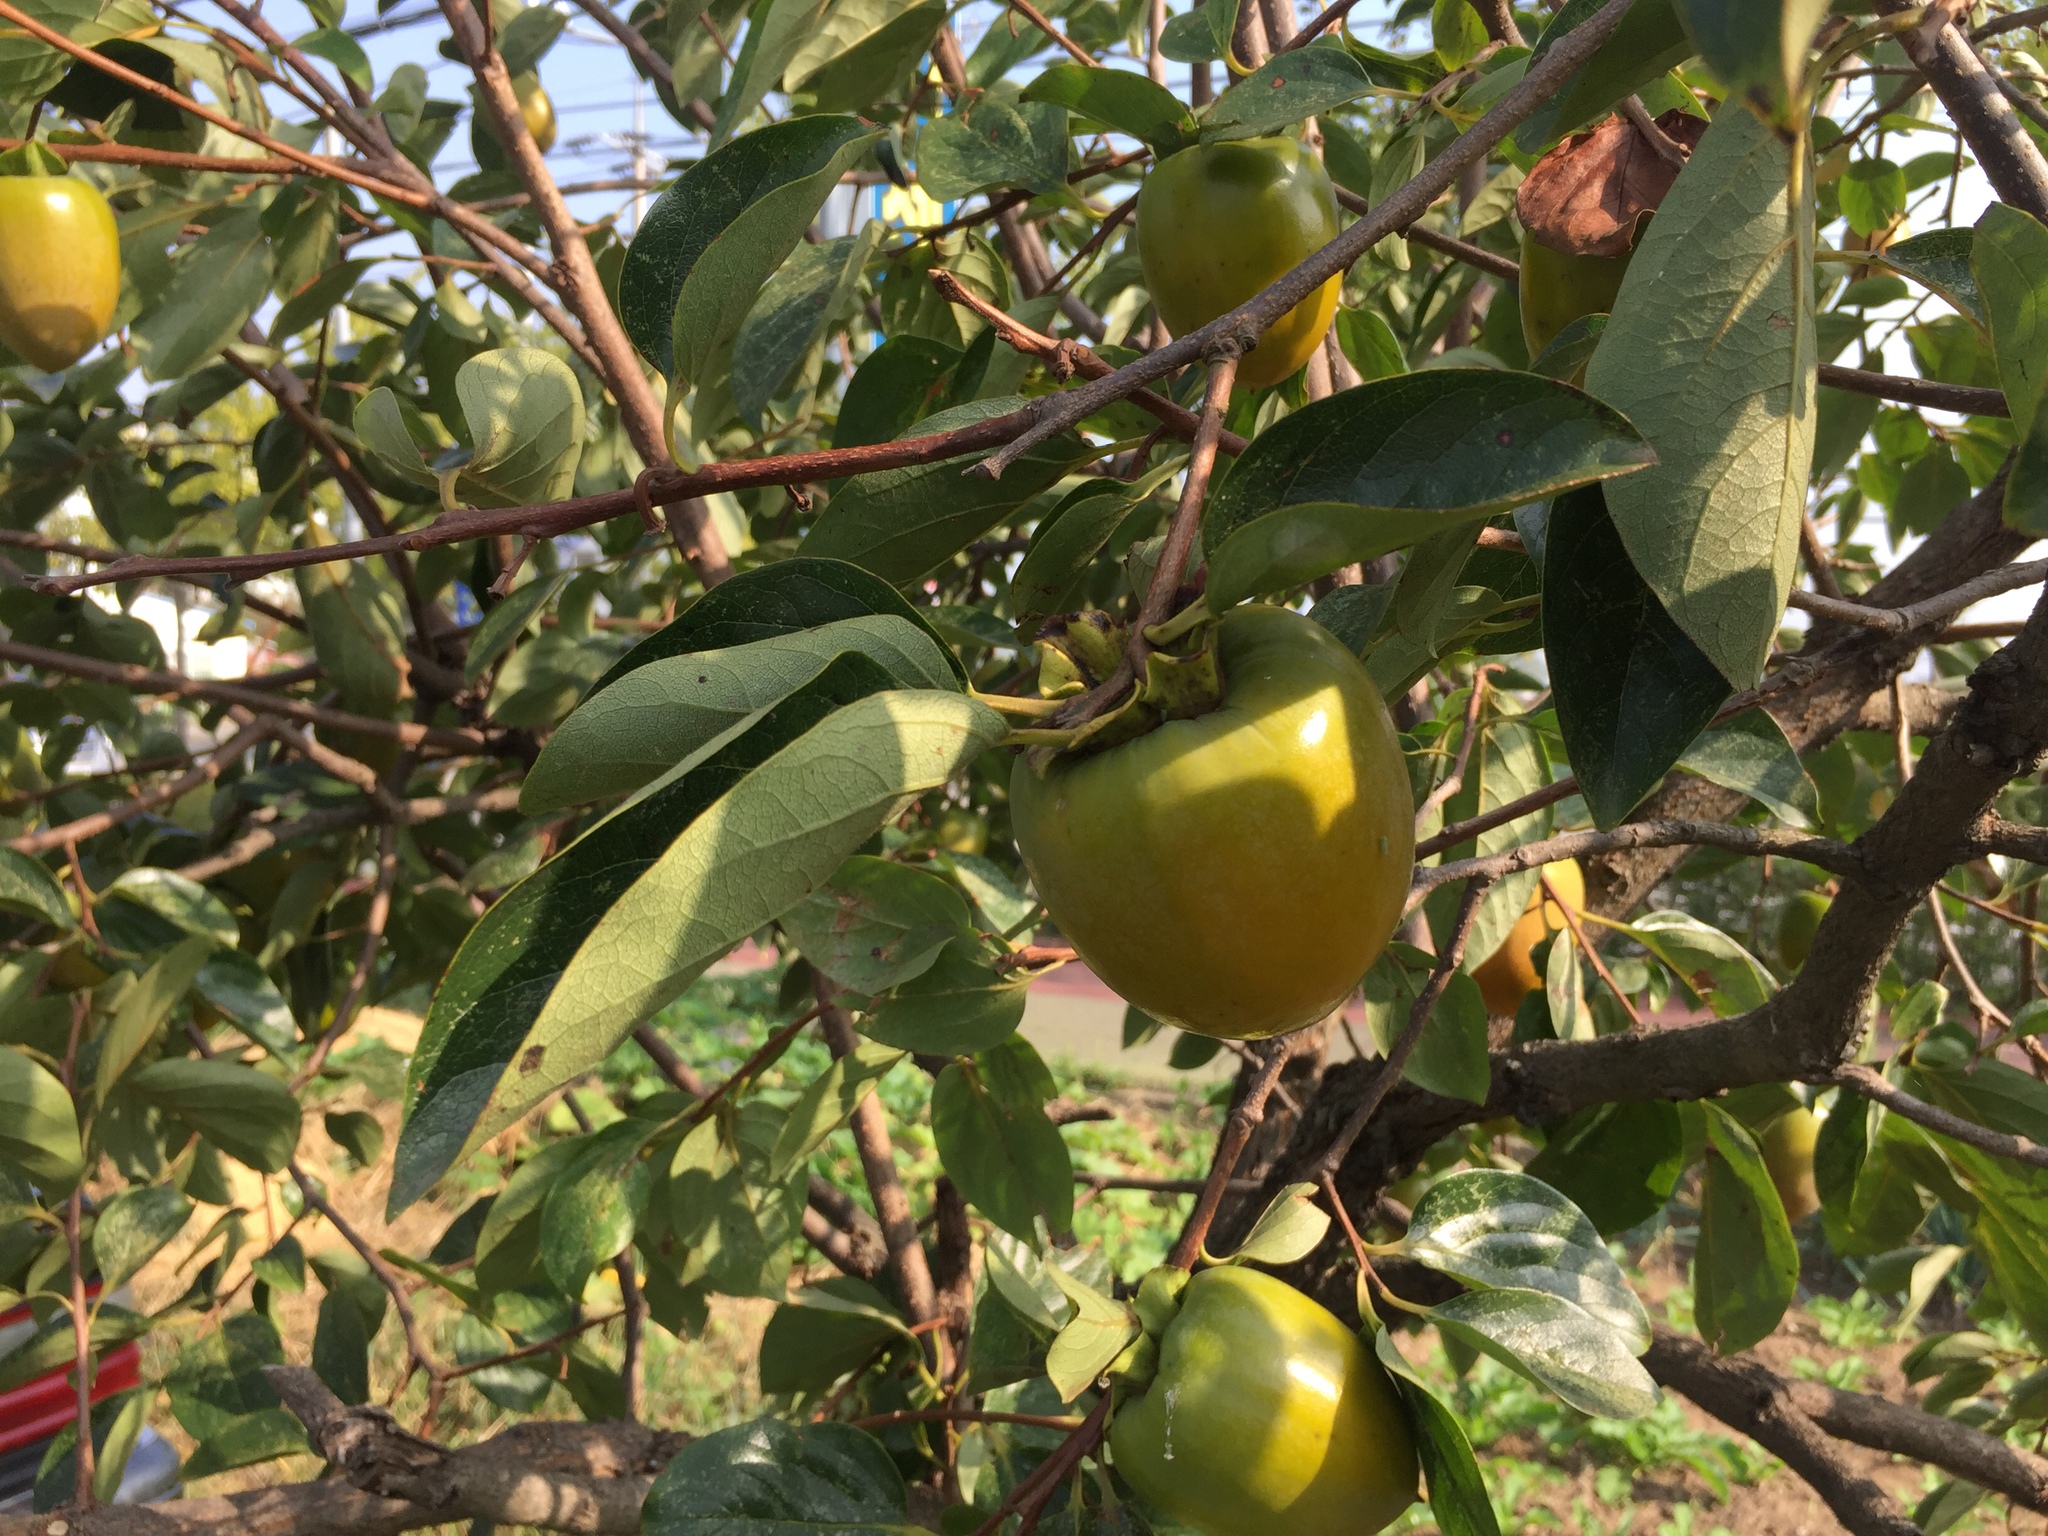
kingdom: Plantae
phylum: Tracheophyta
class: Magnoliopsida
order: Ericales
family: Ebenaceae
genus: Diospyros
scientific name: Diospyros kaki
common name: Persimmon
